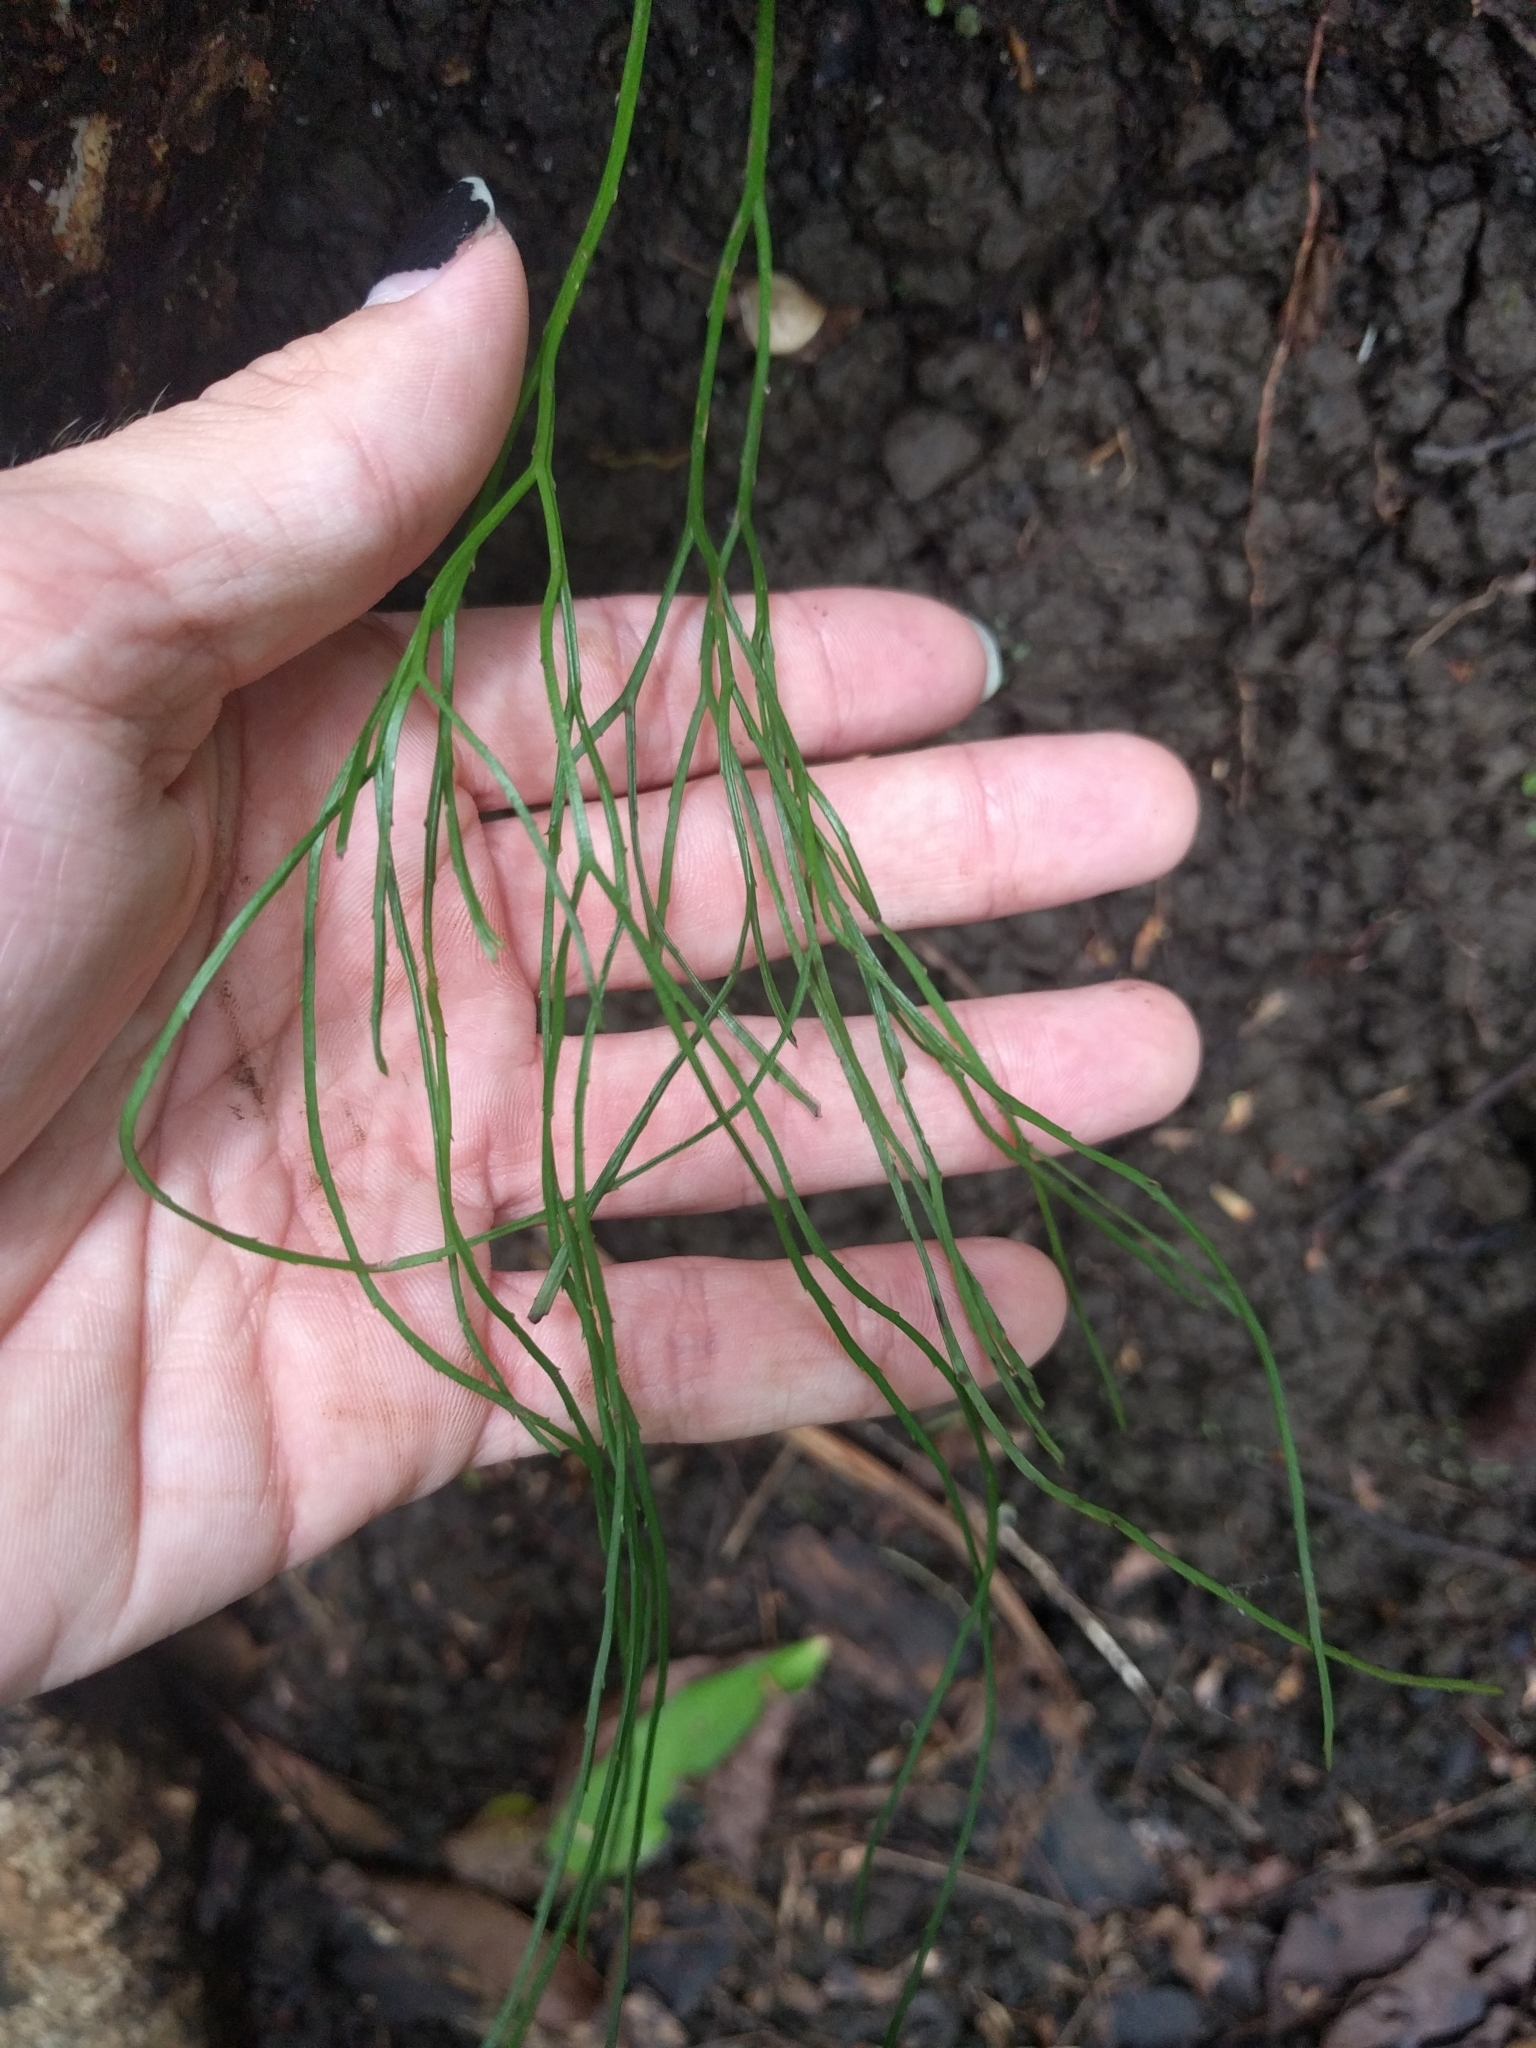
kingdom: Plantae
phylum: Tracheophyta
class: Polypodiopsida
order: Psilotales
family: Psilotaceae
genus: Psilotum
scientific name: Psilotum nudum
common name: Skeleton fork fern
